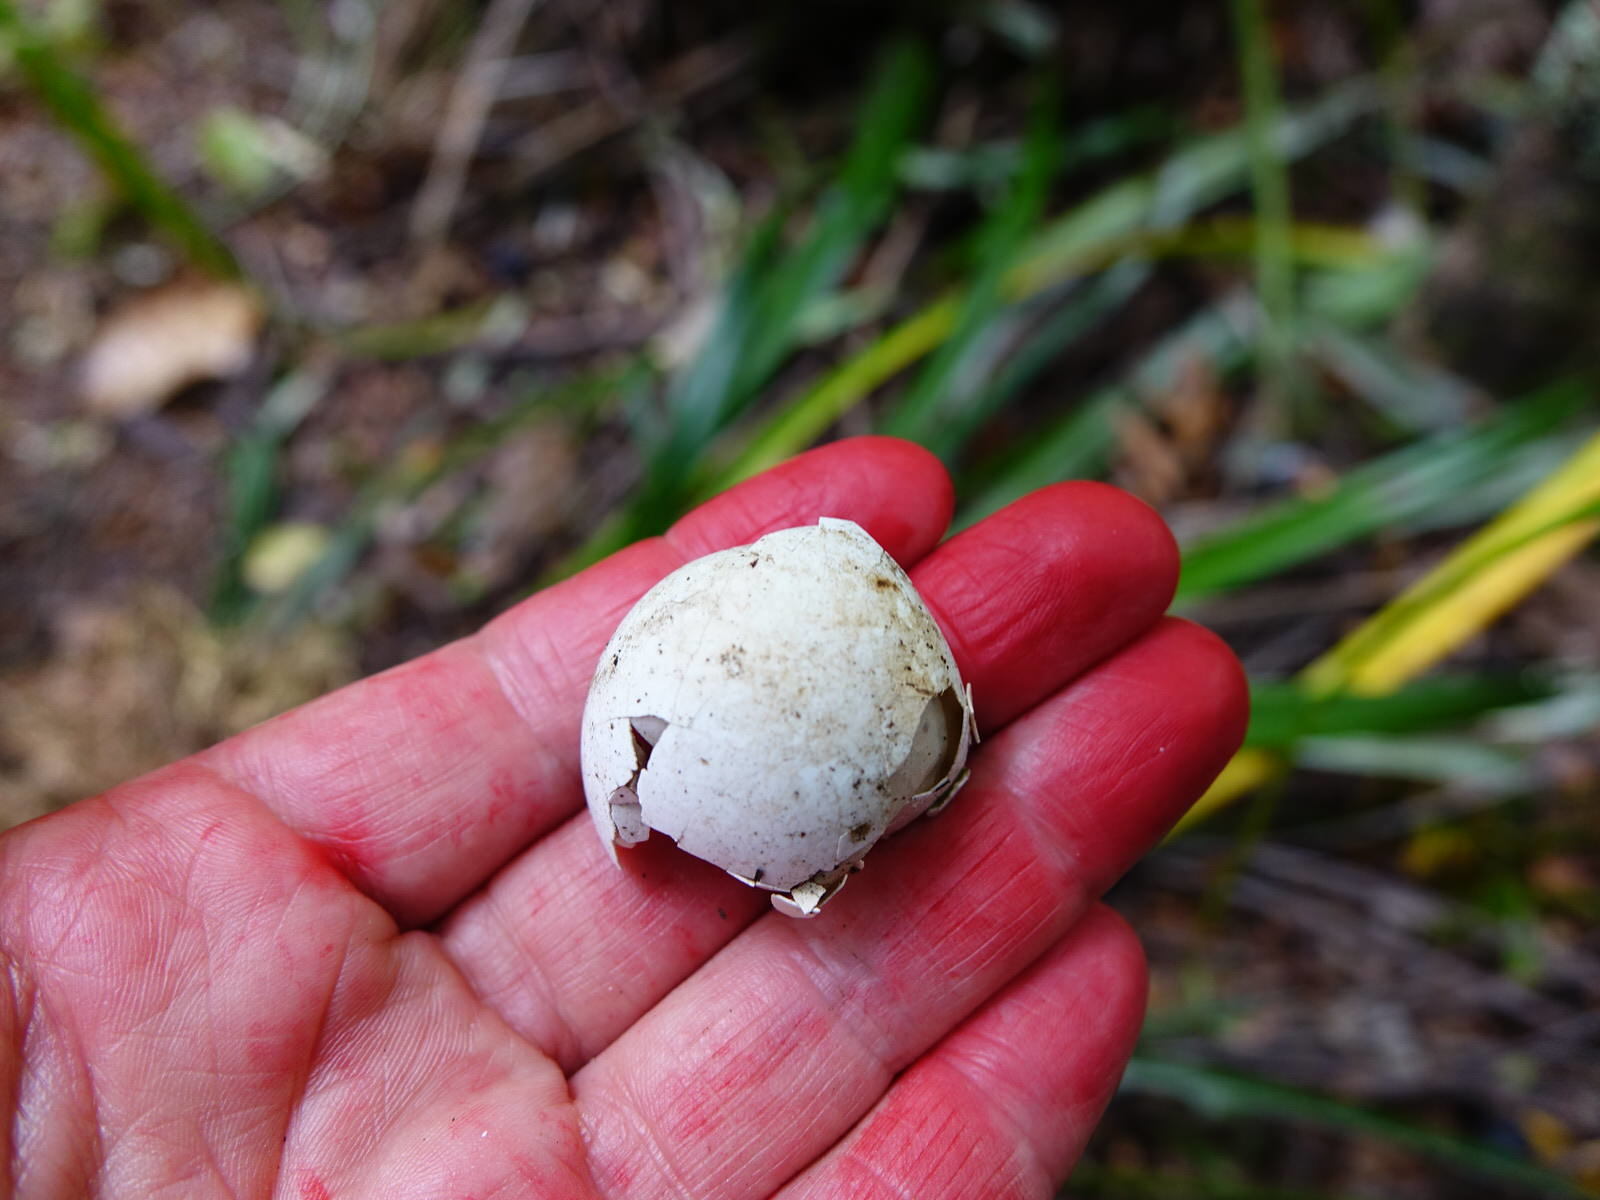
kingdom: Animalia
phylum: Chordata
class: Aves
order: Psittaciformes
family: Psittacidae
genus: Cacatua
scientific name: Cacatua galerita
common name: Sulphur-crested cockatoo
